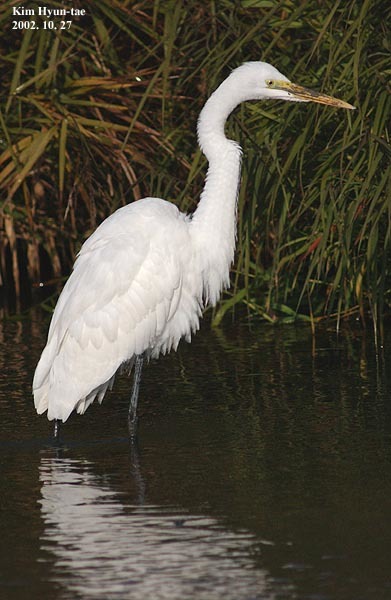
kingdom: Animalia
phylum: Chordata
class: Aves
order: Pelecaniformes
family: Ardeidae
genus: Ardea
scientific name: Ardea alba
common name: Great egret
